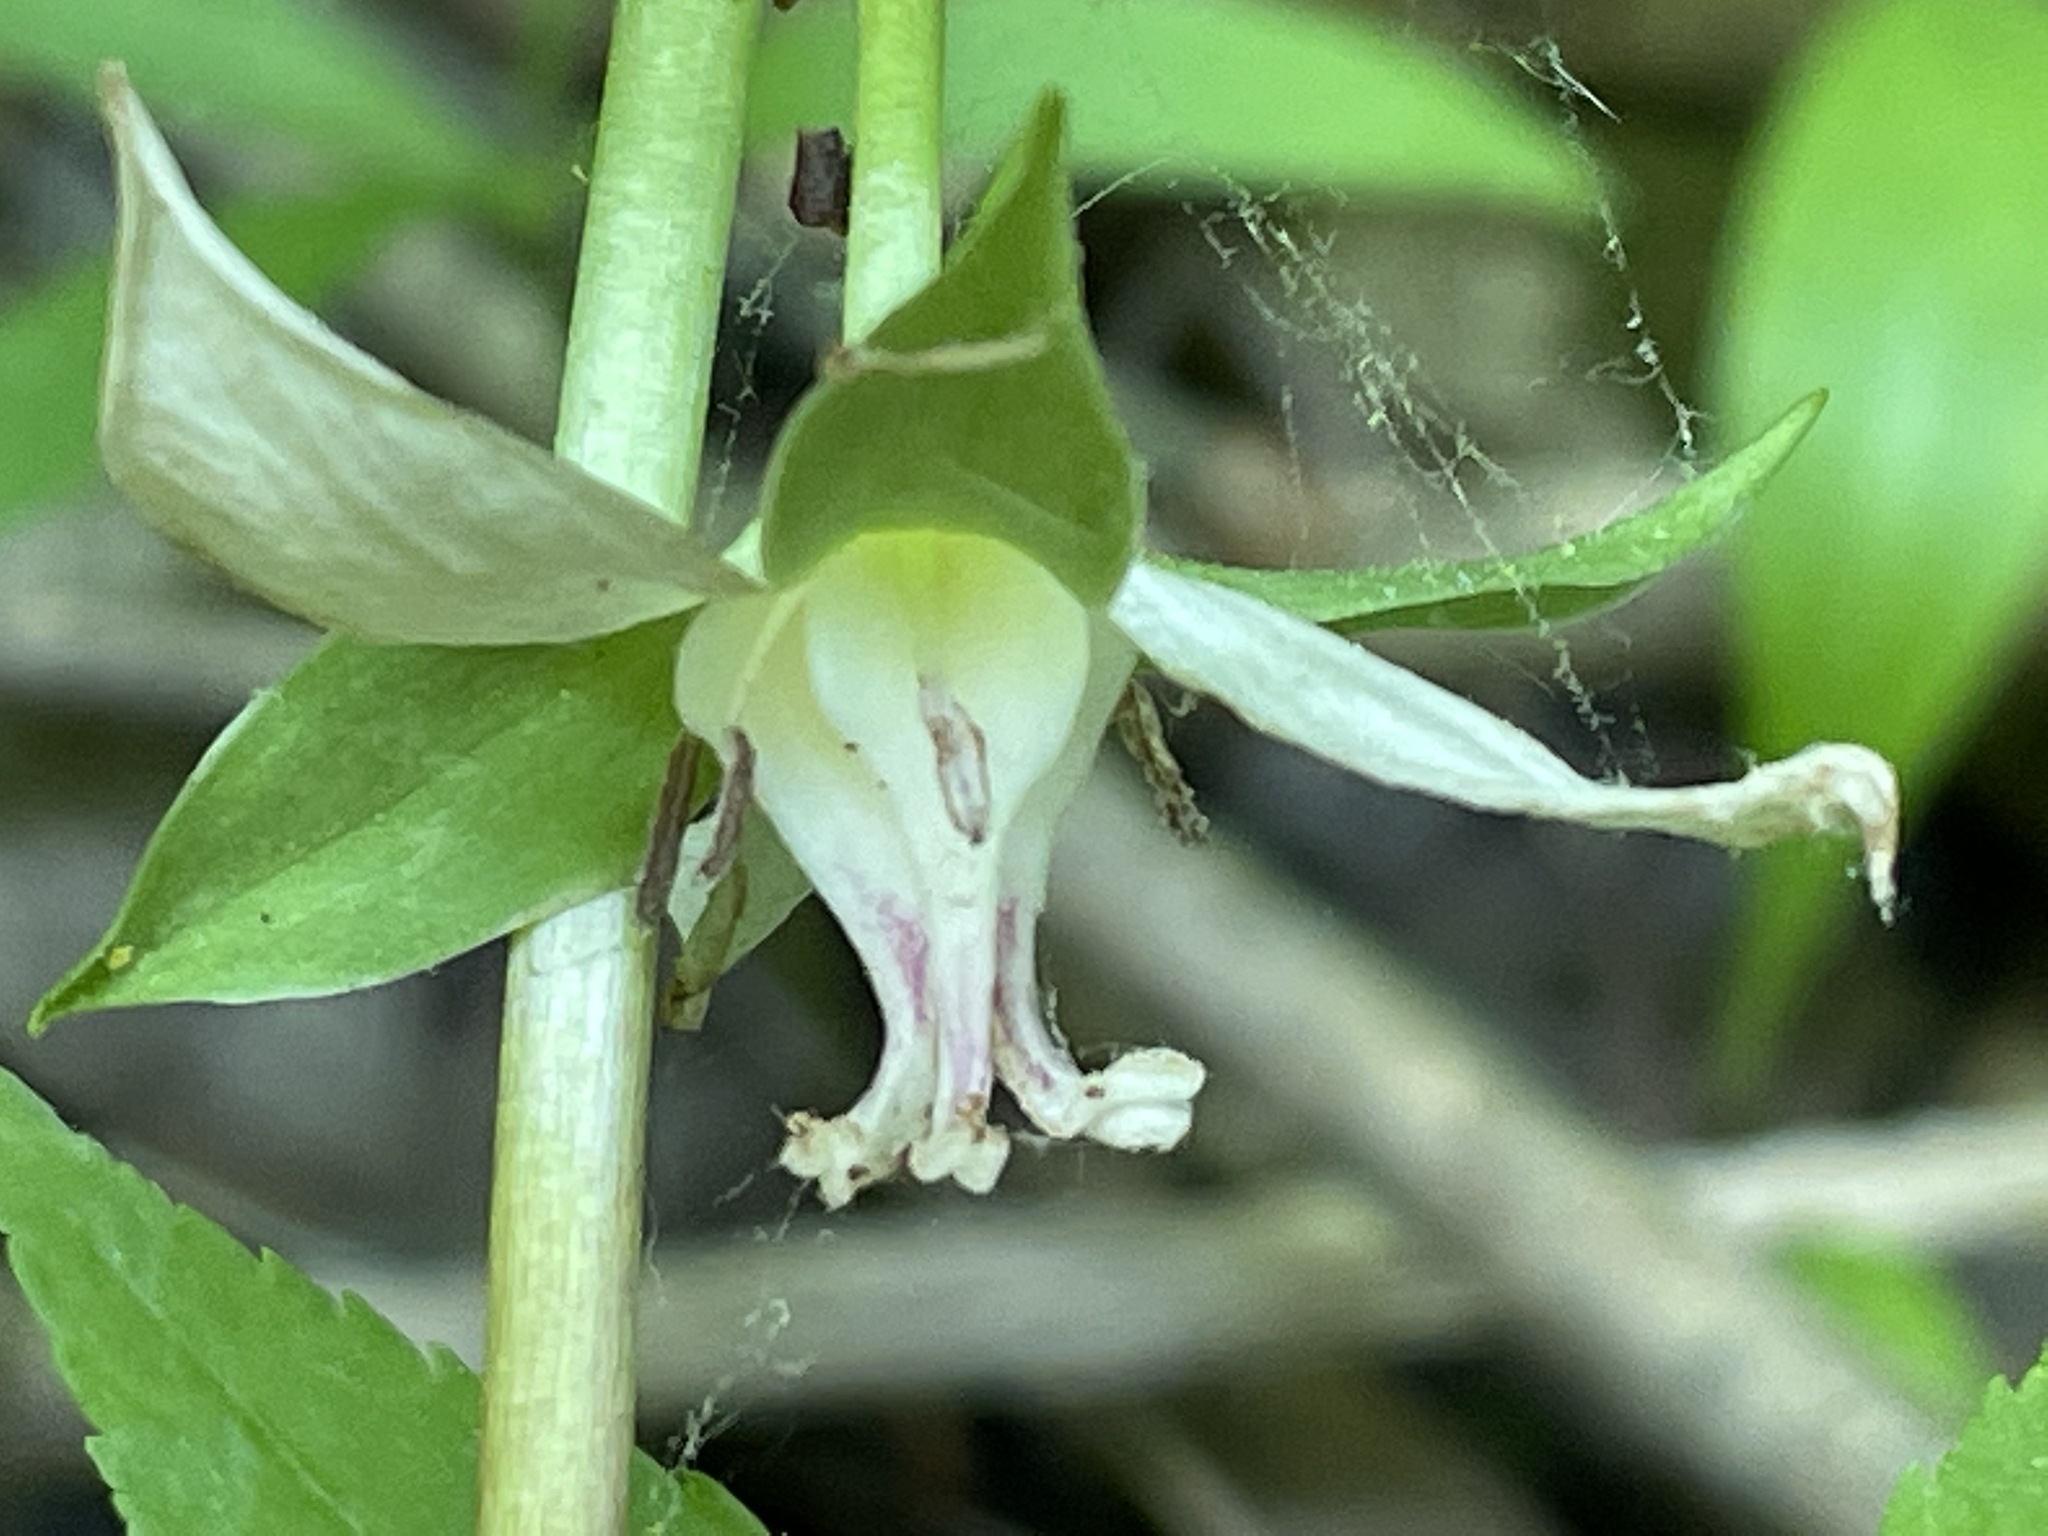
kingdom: Plantae
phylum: Tracheophyta
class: Liliopsida
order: Liliales
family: Melanthiaceae
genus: Trillium
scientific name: Trillium cernuum
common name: Nodding trillium
